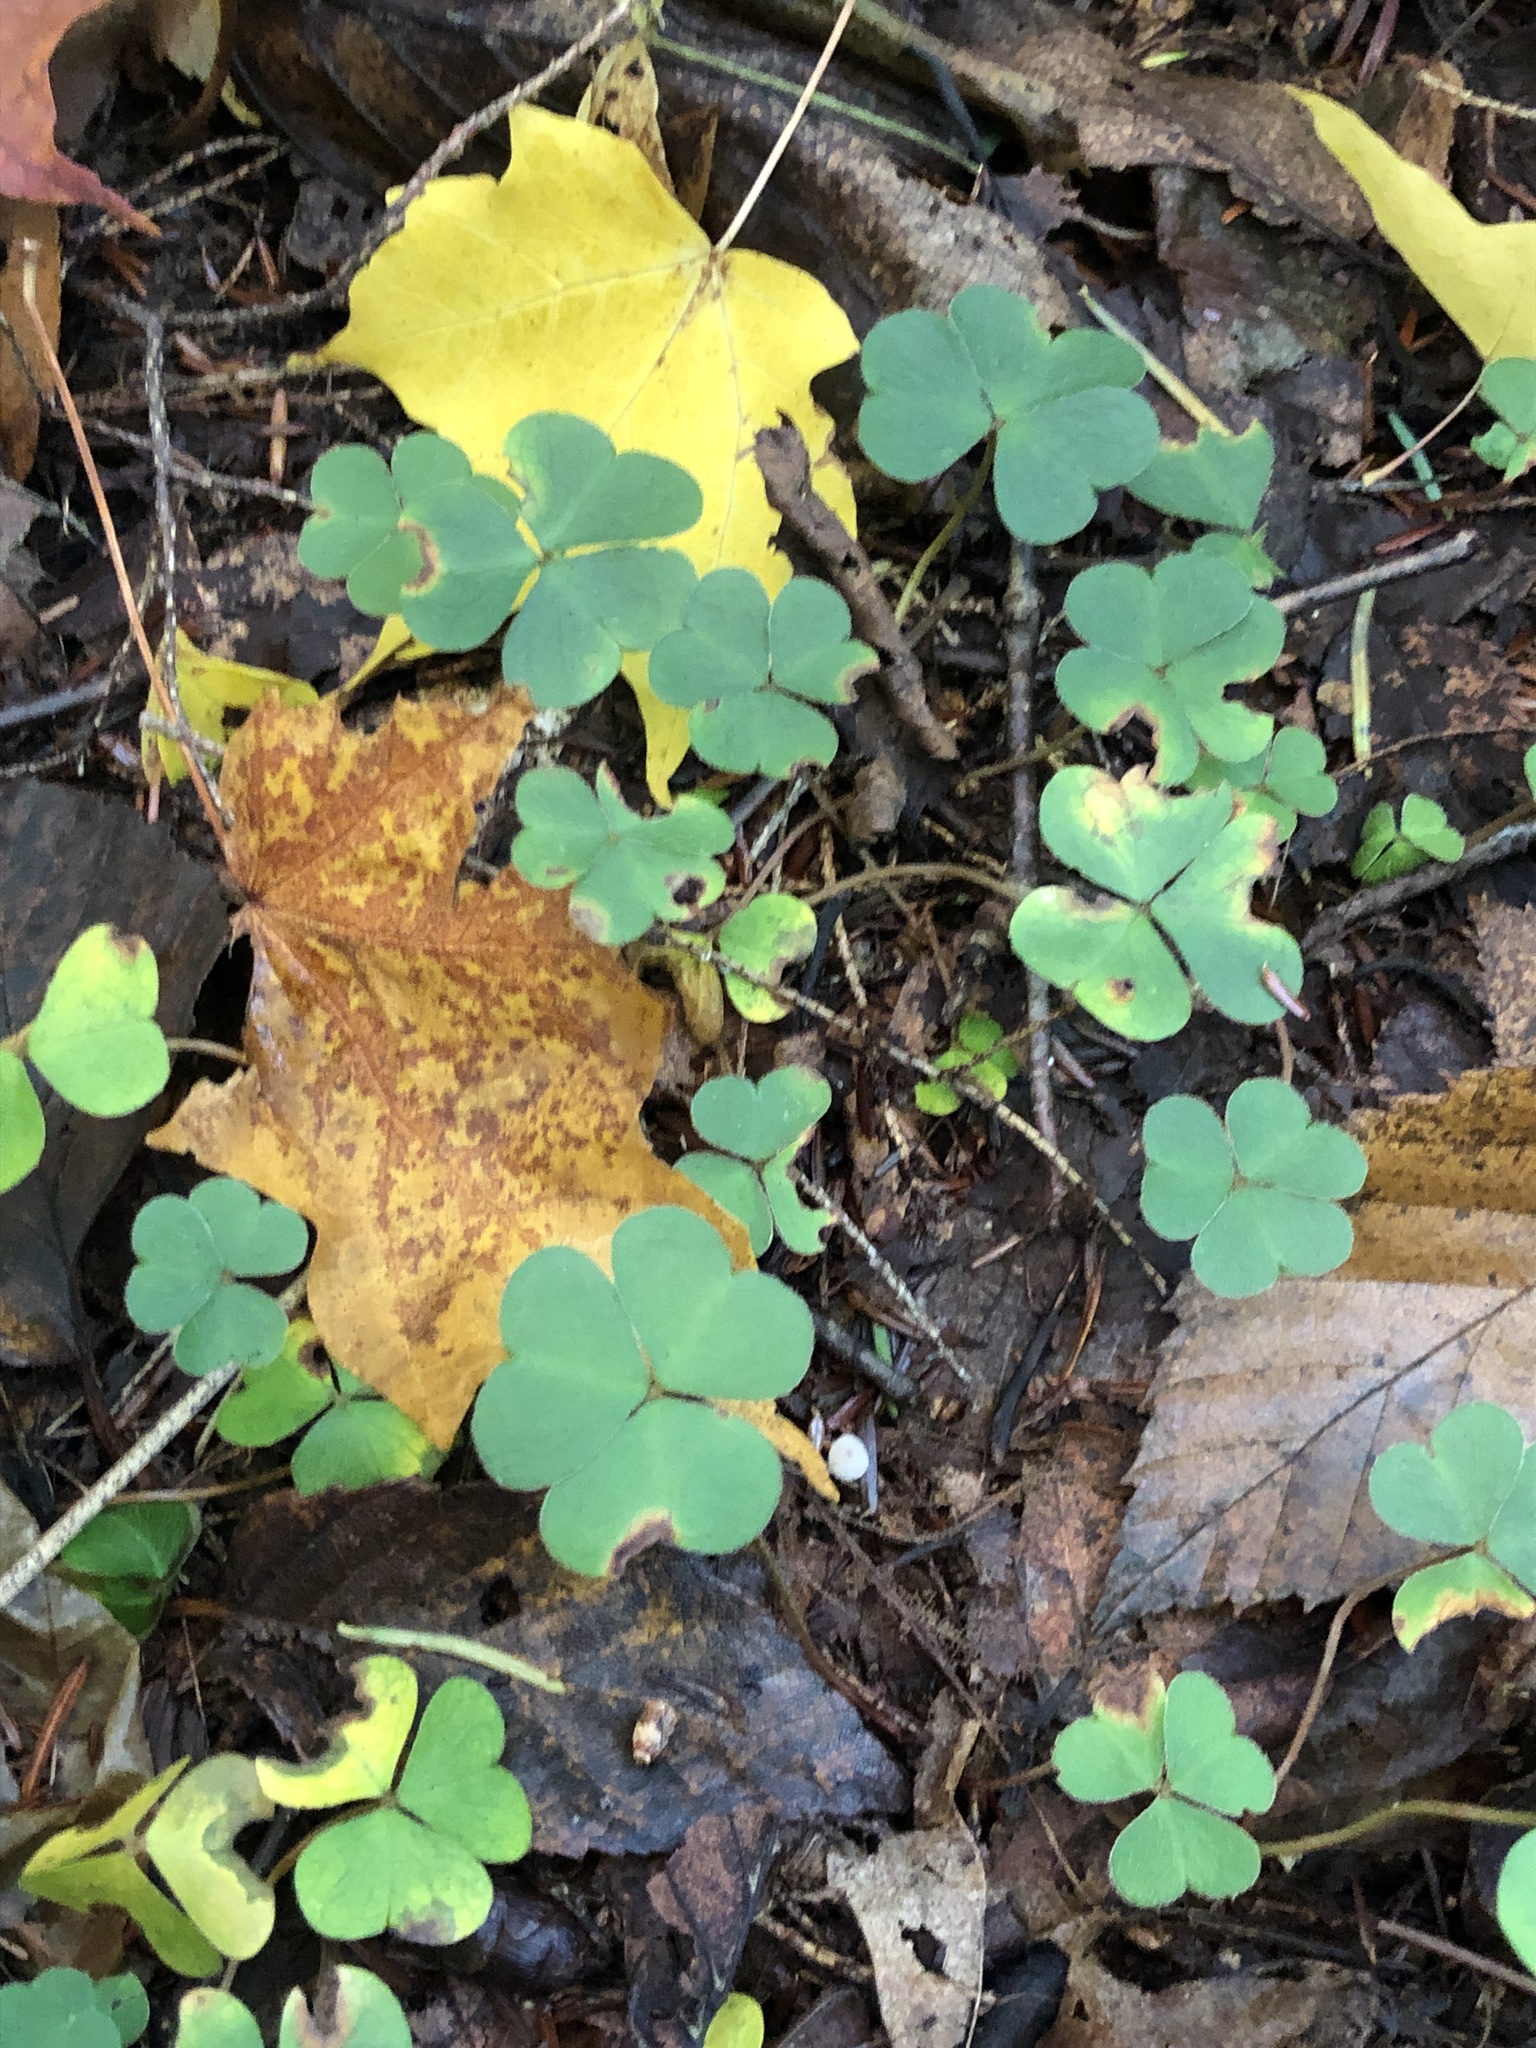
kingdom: Plantae
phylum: Tracheophyta
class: Magnoliopsida
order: Oxalidales
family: Oxalidaceae
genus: Oxalis
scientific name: Oxalis montana
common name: American wood-sorrel
